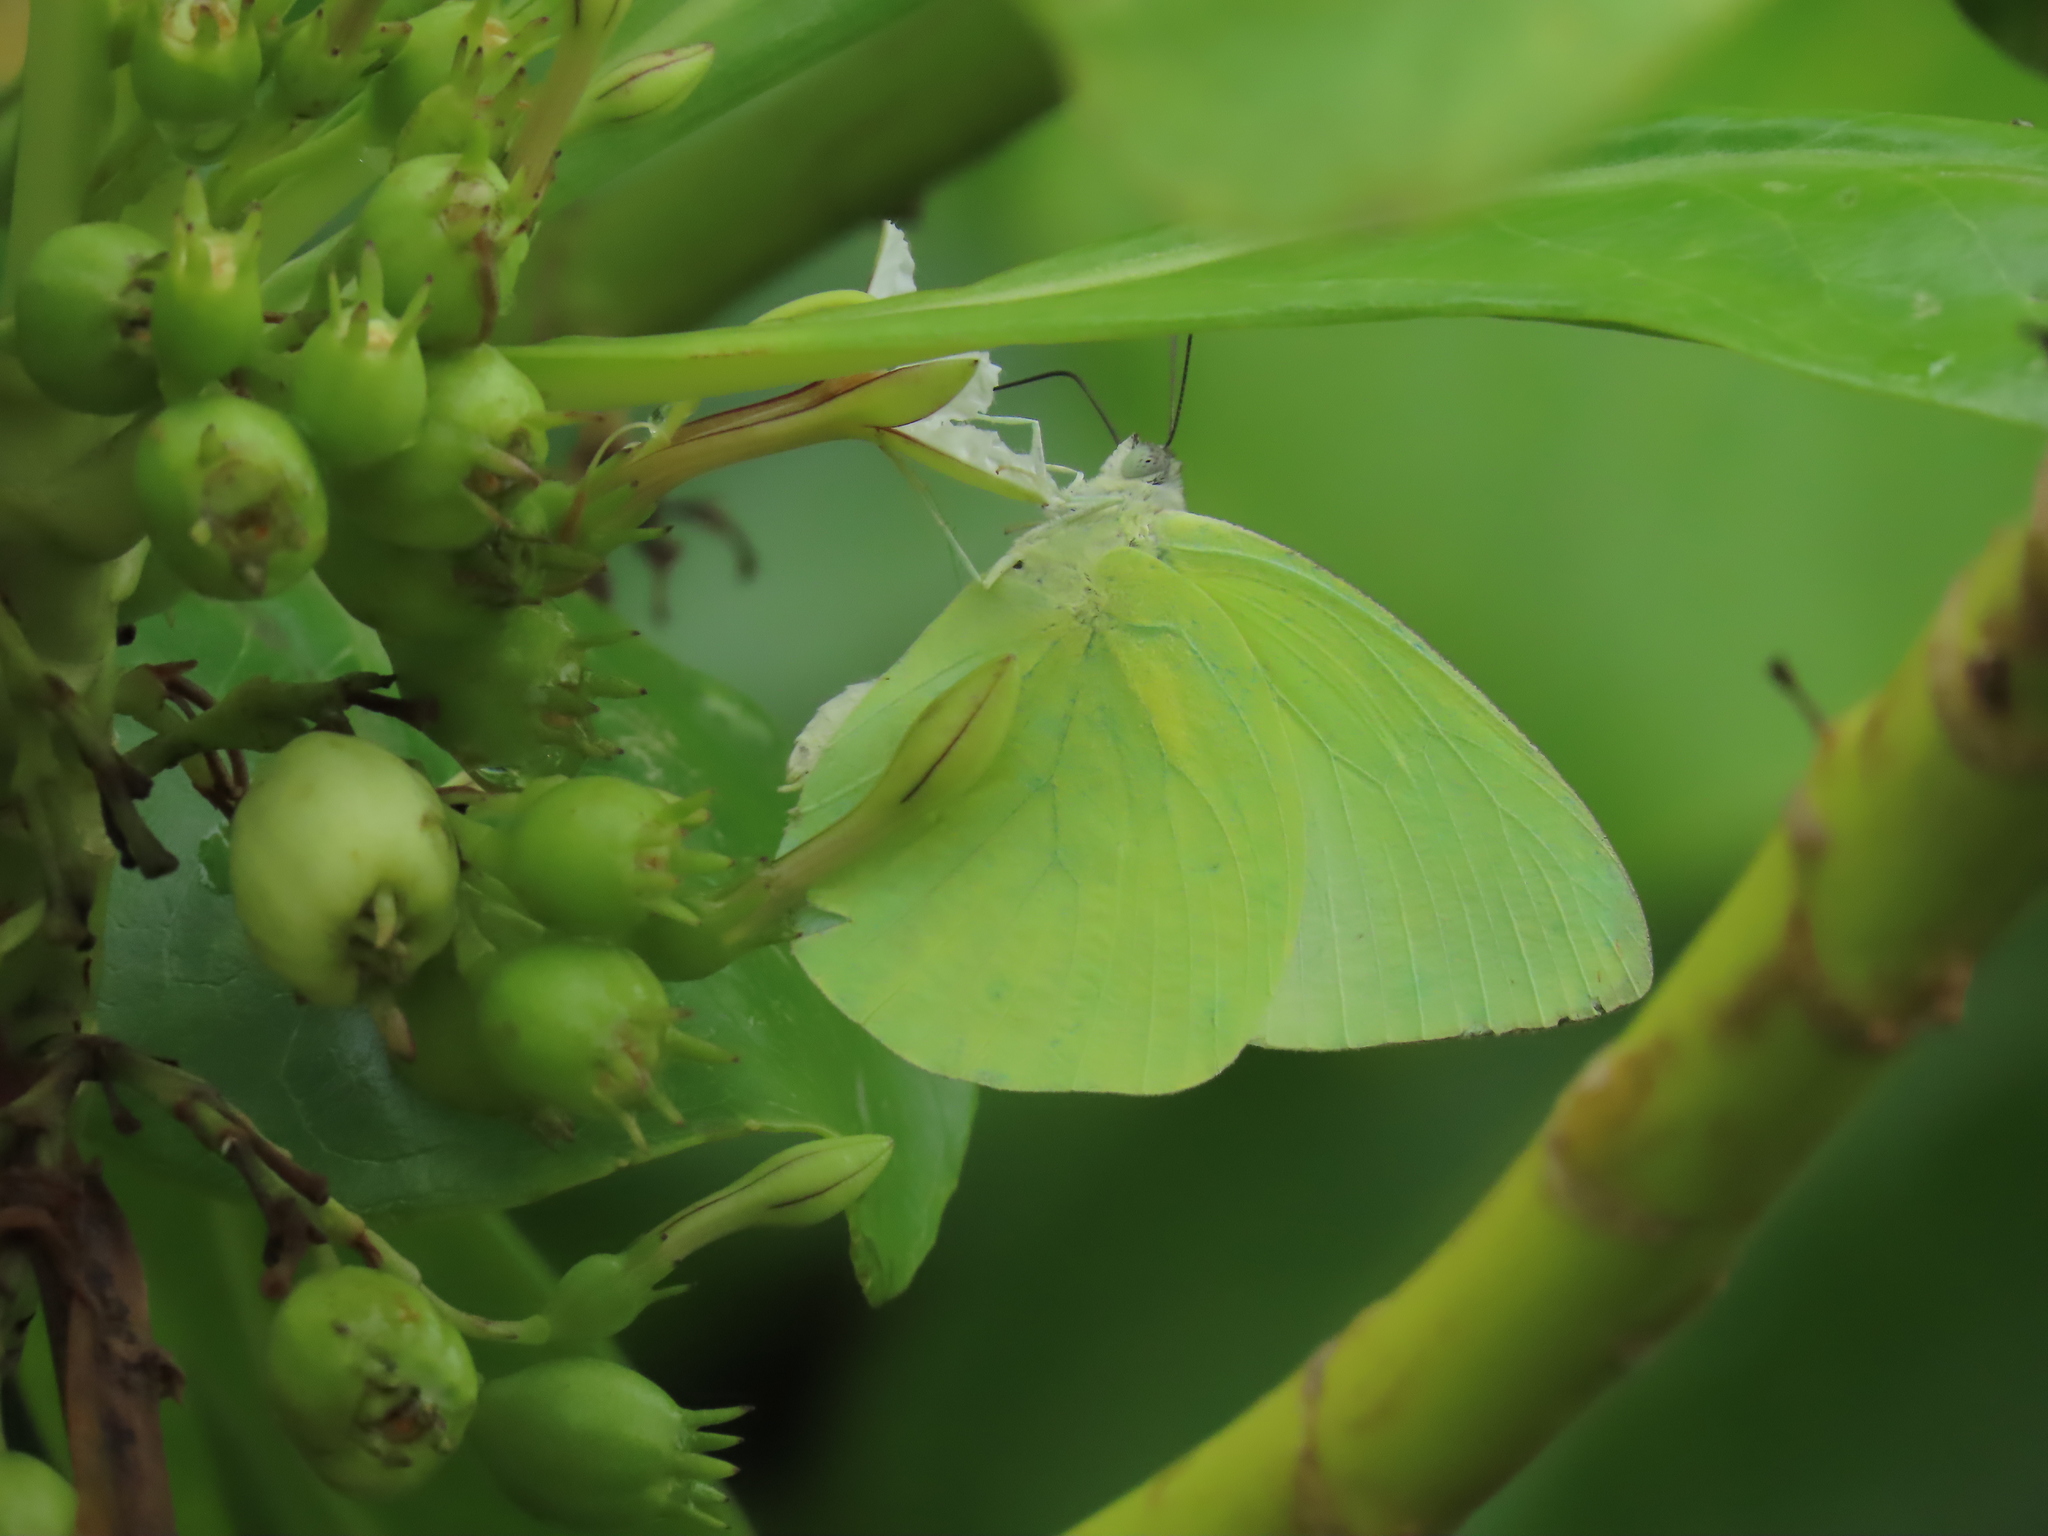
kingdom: Animalia
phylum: Arthropoda
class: Insecta
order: Lepidoptera
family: Pieridae
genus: Catopsilia
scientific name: Catopsilia pomona
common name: Common emigrant
